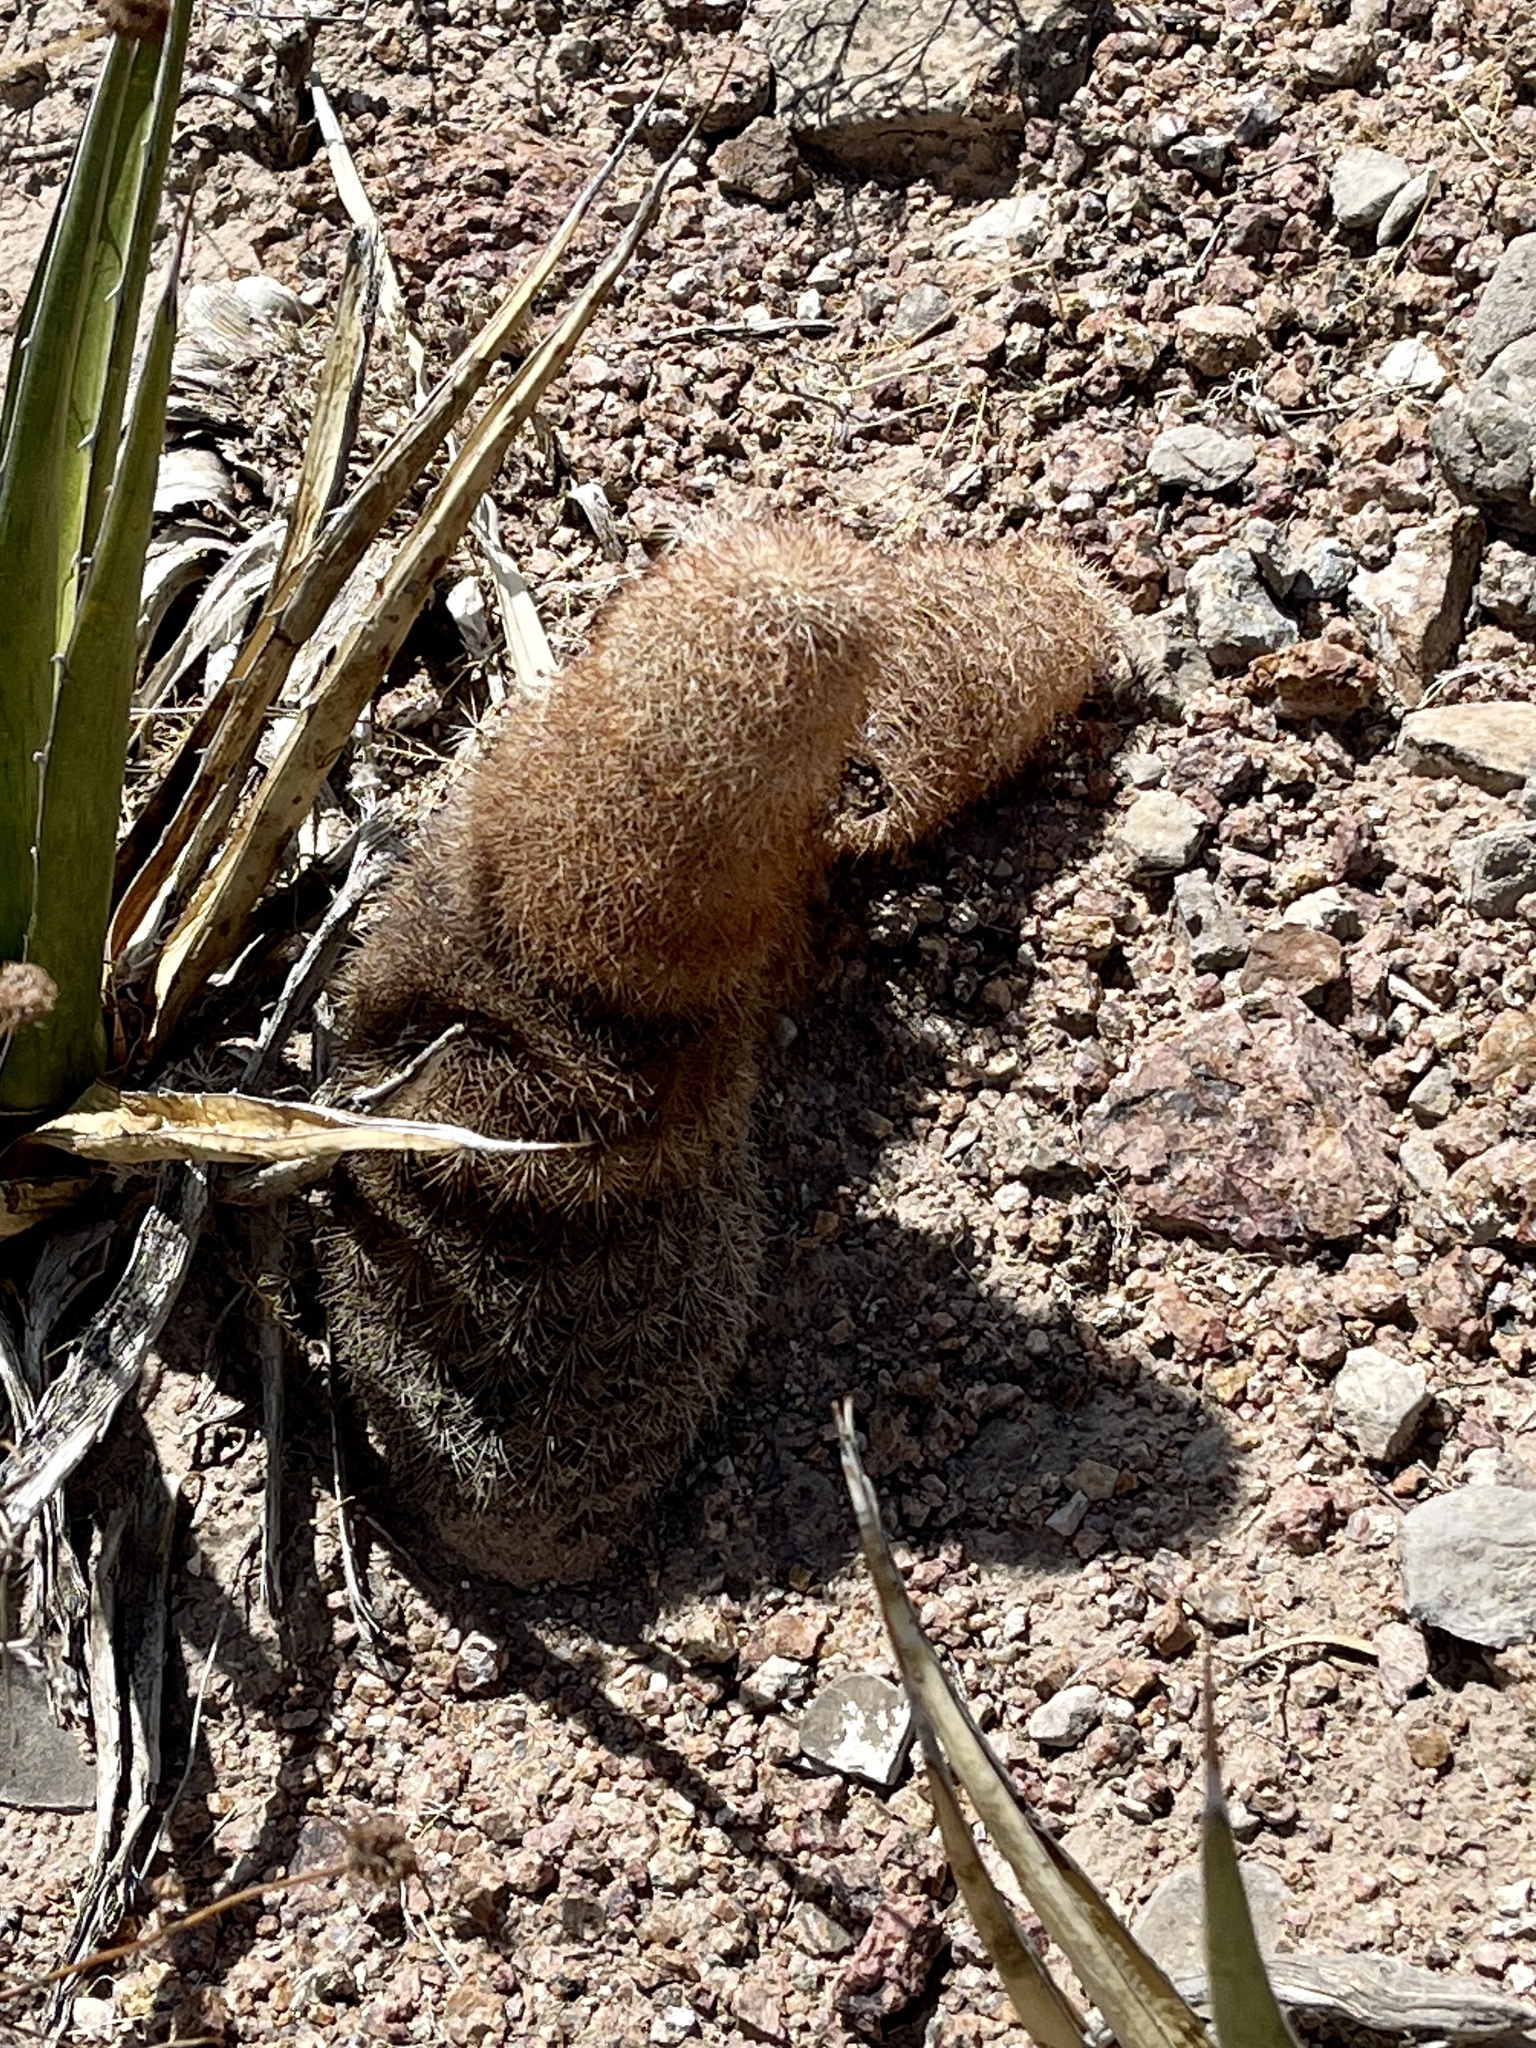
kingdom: Plantae
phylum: Tracheophyta
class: Magnoliopsida
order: Caryophyllales
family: Cactaceae
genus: Echinocereus
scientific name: Echinocereus dasyacanthus
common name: Spiny hedgehog cactus
